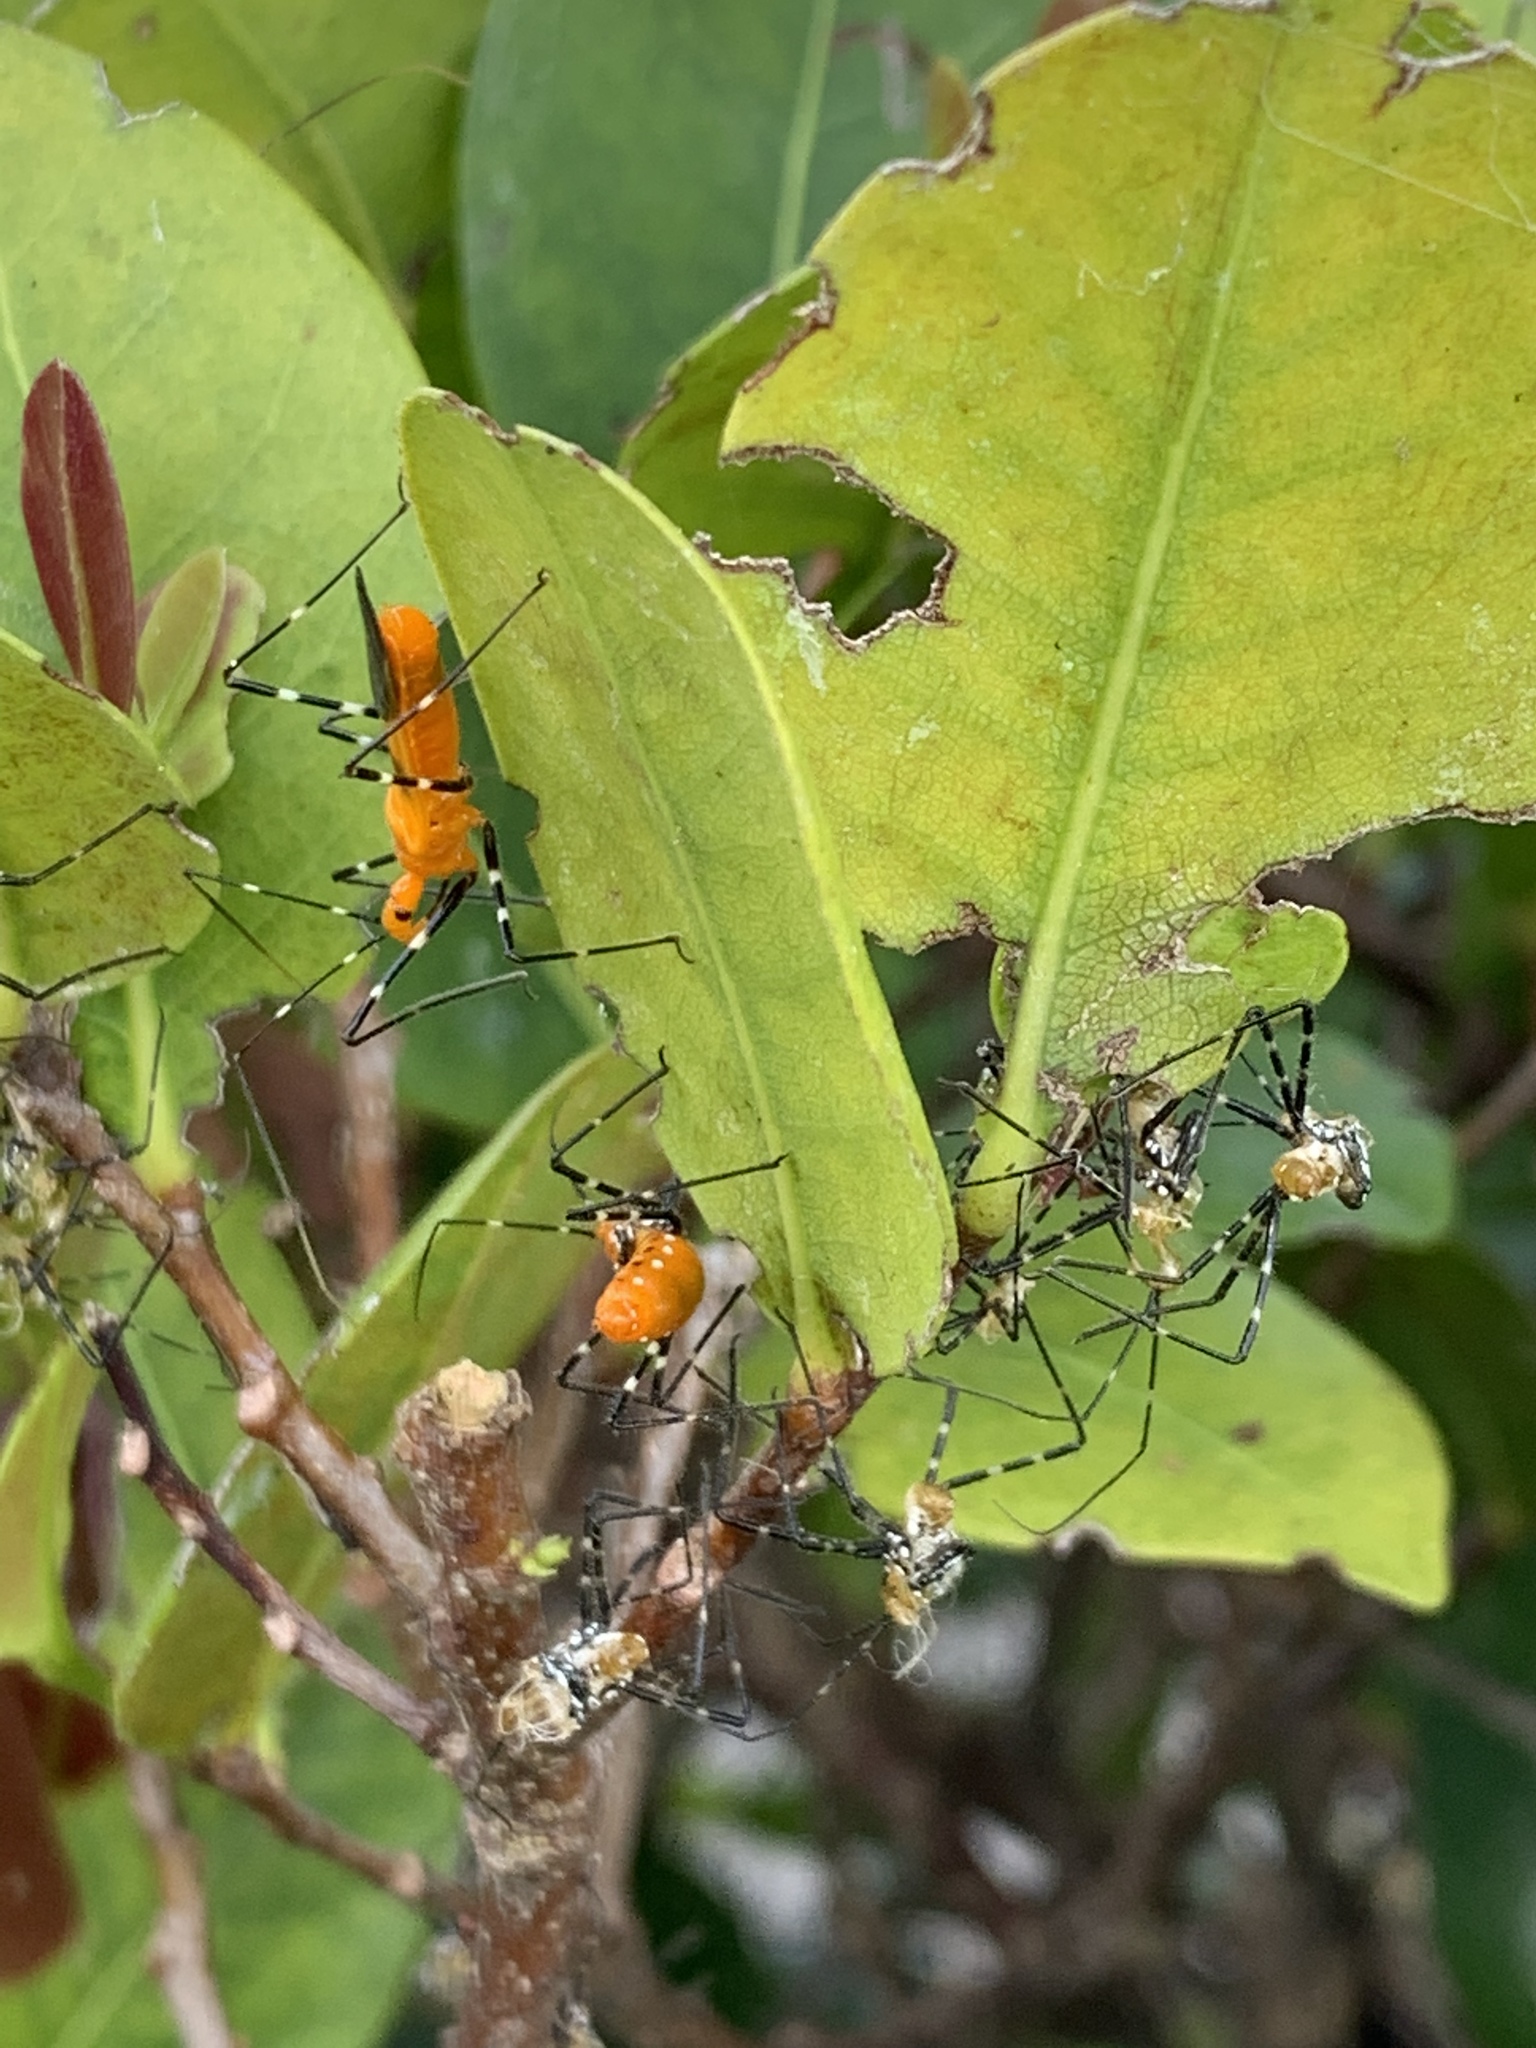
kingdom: Animalia
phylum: Arthropoda
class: Insecta
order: Hemiptera
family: Reduviidae
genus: Zelus
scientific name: Zelus longipes
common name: Milkweed assassin bug
